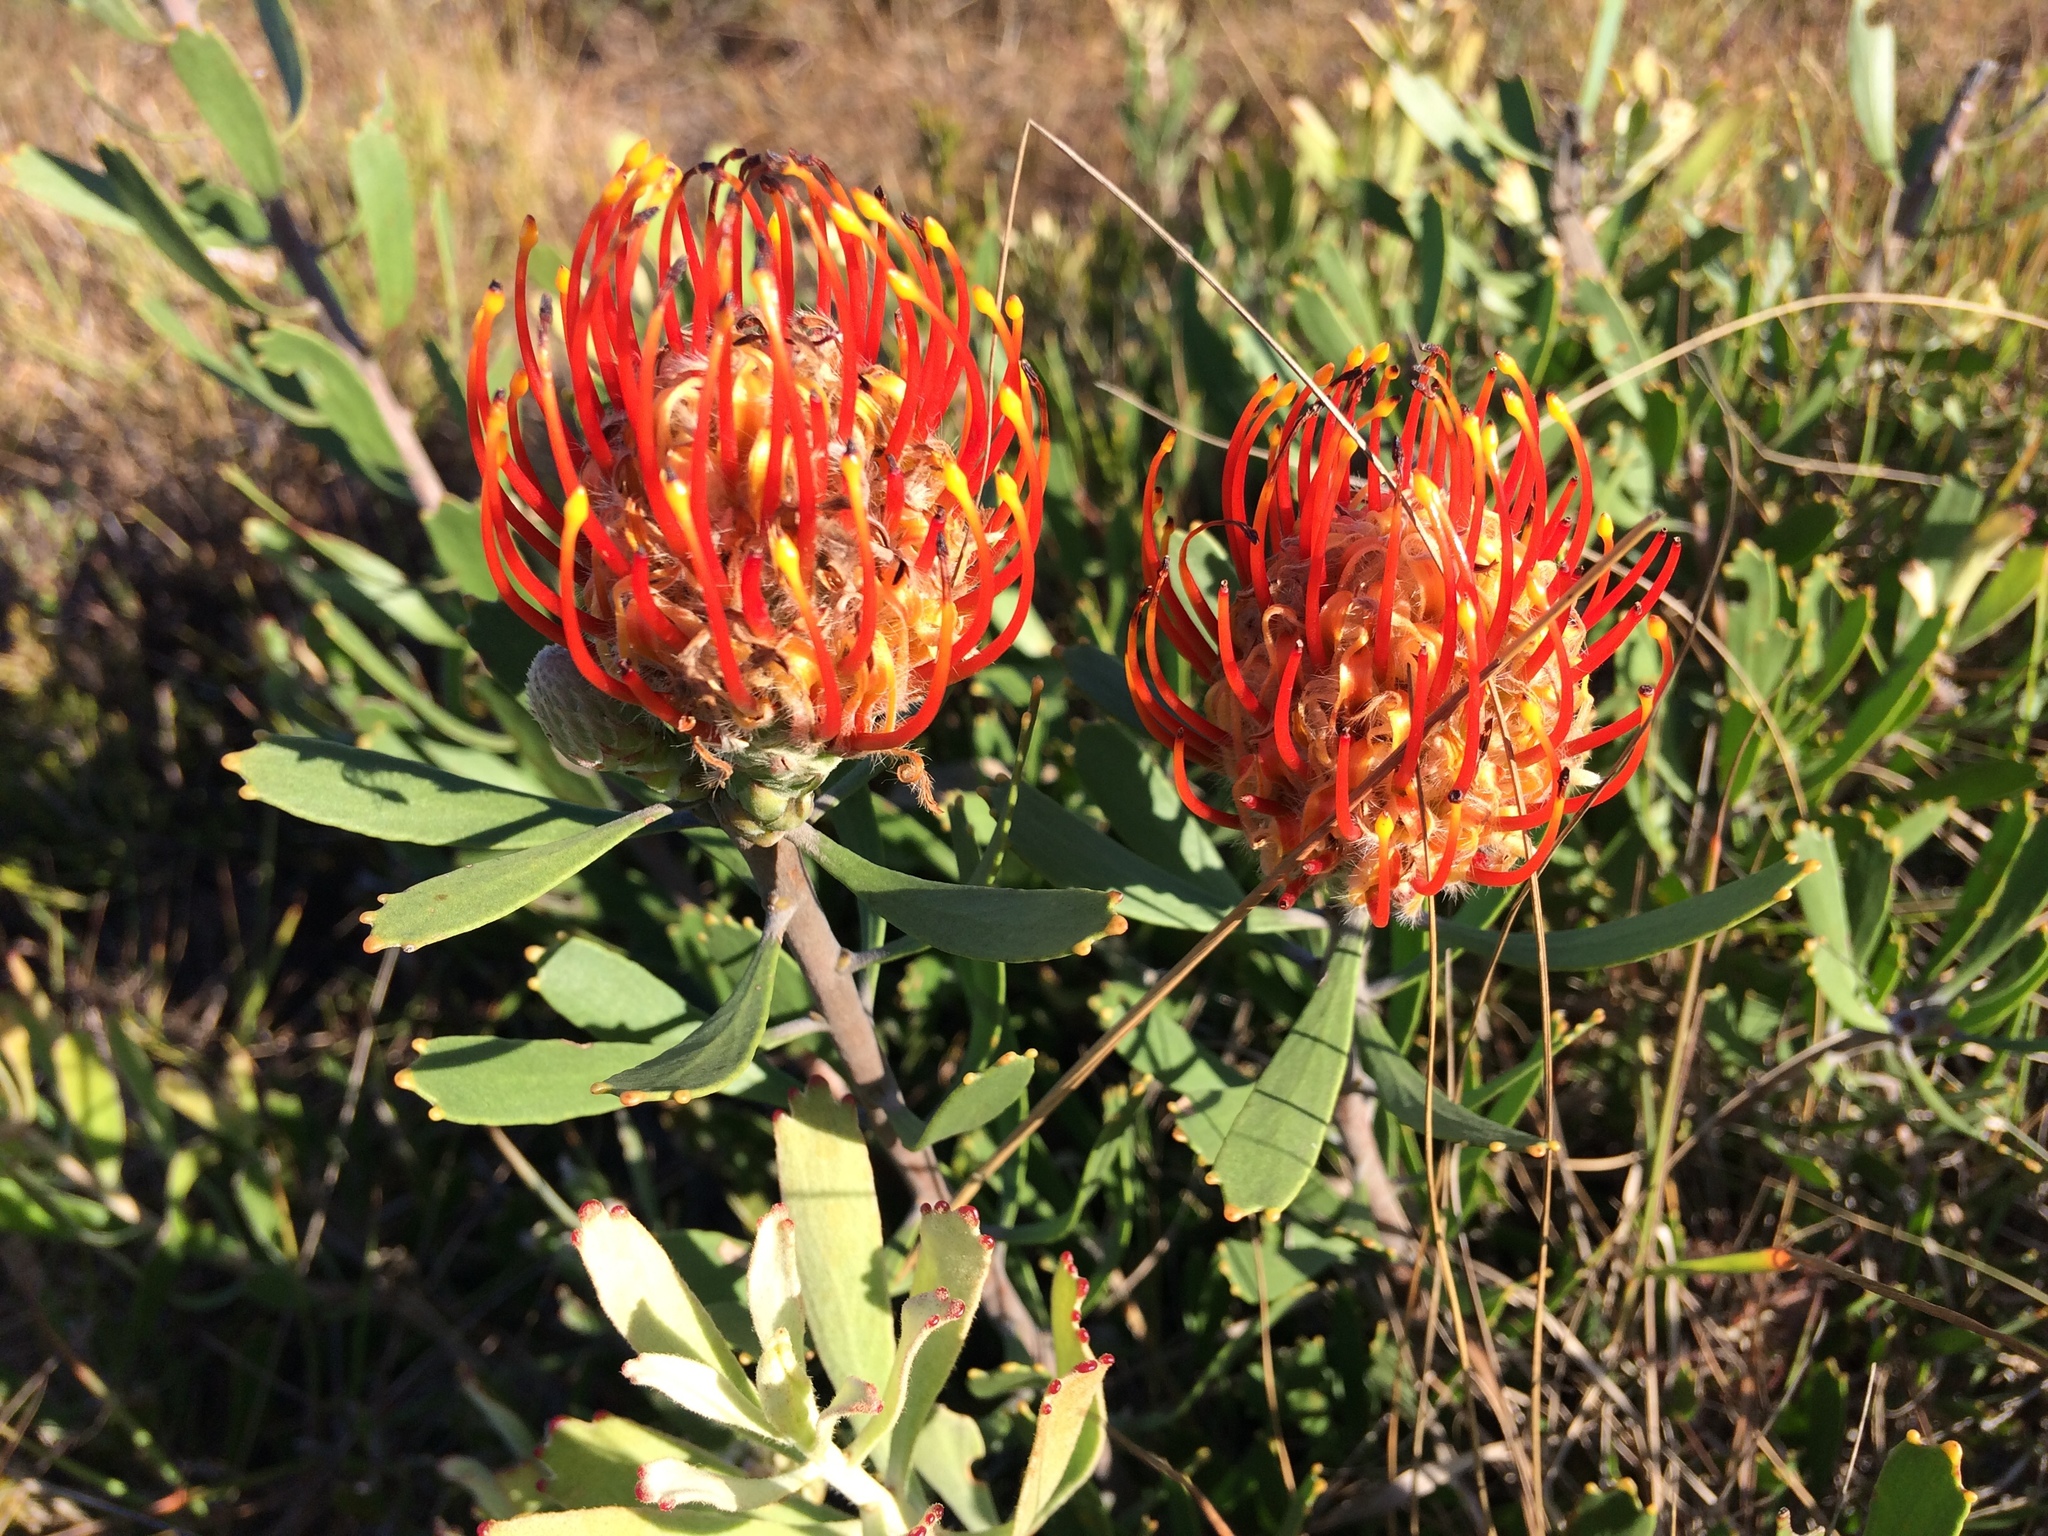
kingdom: Plantae
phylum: Tracheophyta
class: Magnoliopsida
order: Proteales
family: Proteaceae
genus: Leucospermum
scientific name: Leucospermum cuneiforme
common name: Common pincushion
